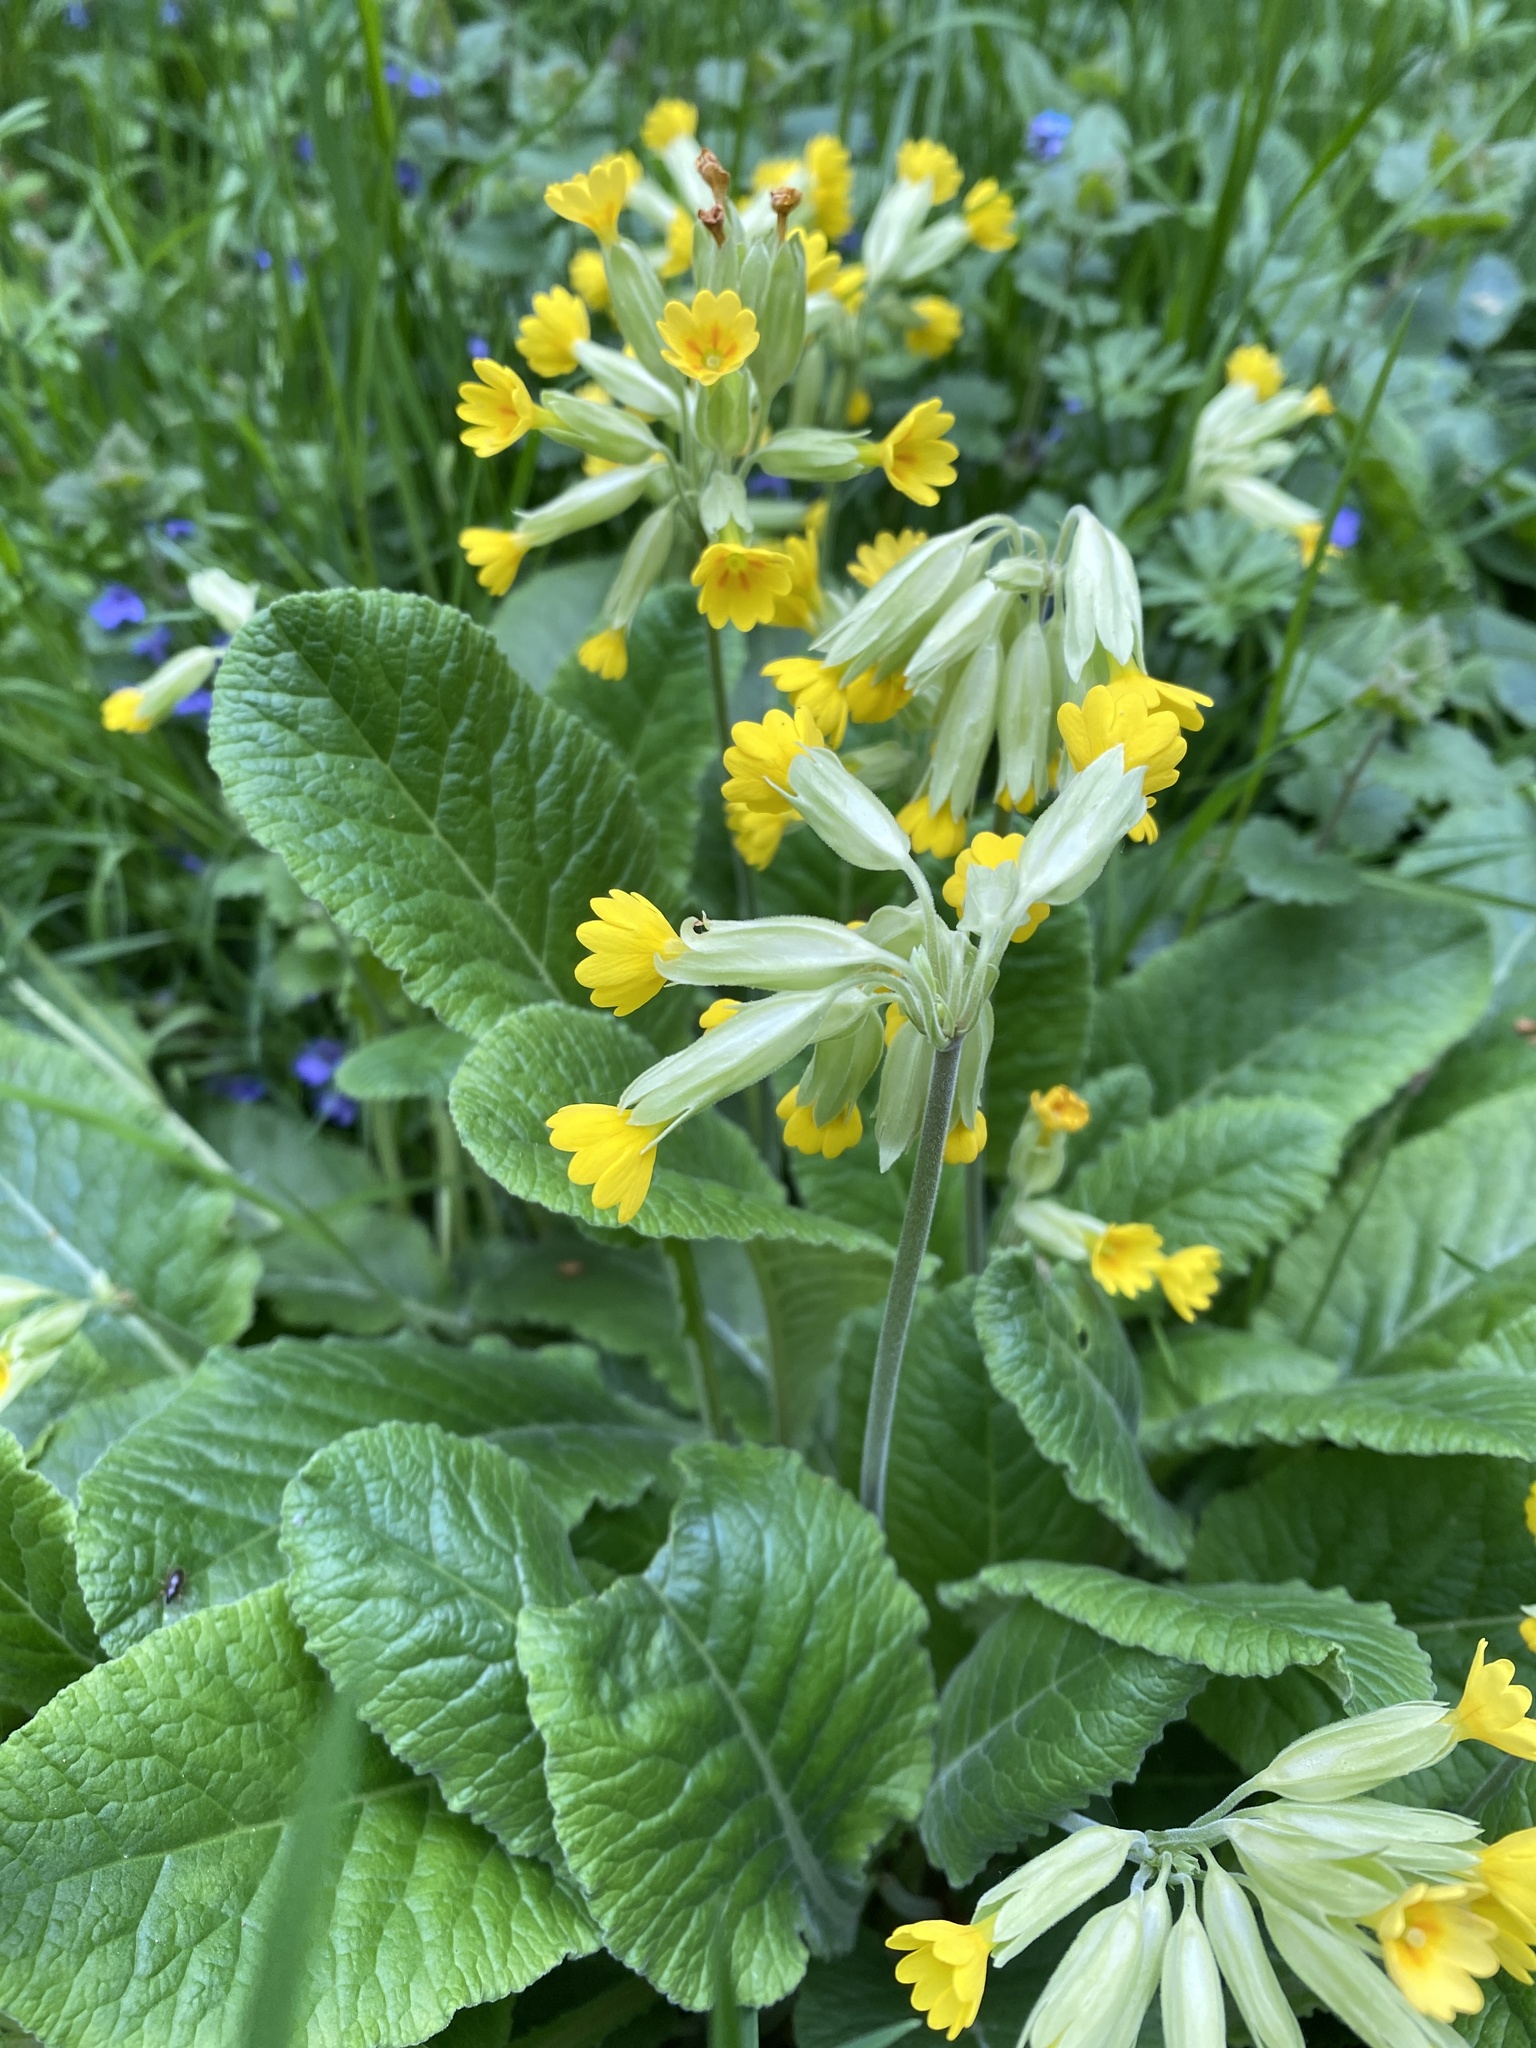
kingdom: Plantae
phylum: Tracheophyta
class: Magnoliopsida
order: Ericales
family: Primulaceae
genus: Primula
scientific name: Primula veris
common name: Cowslip
